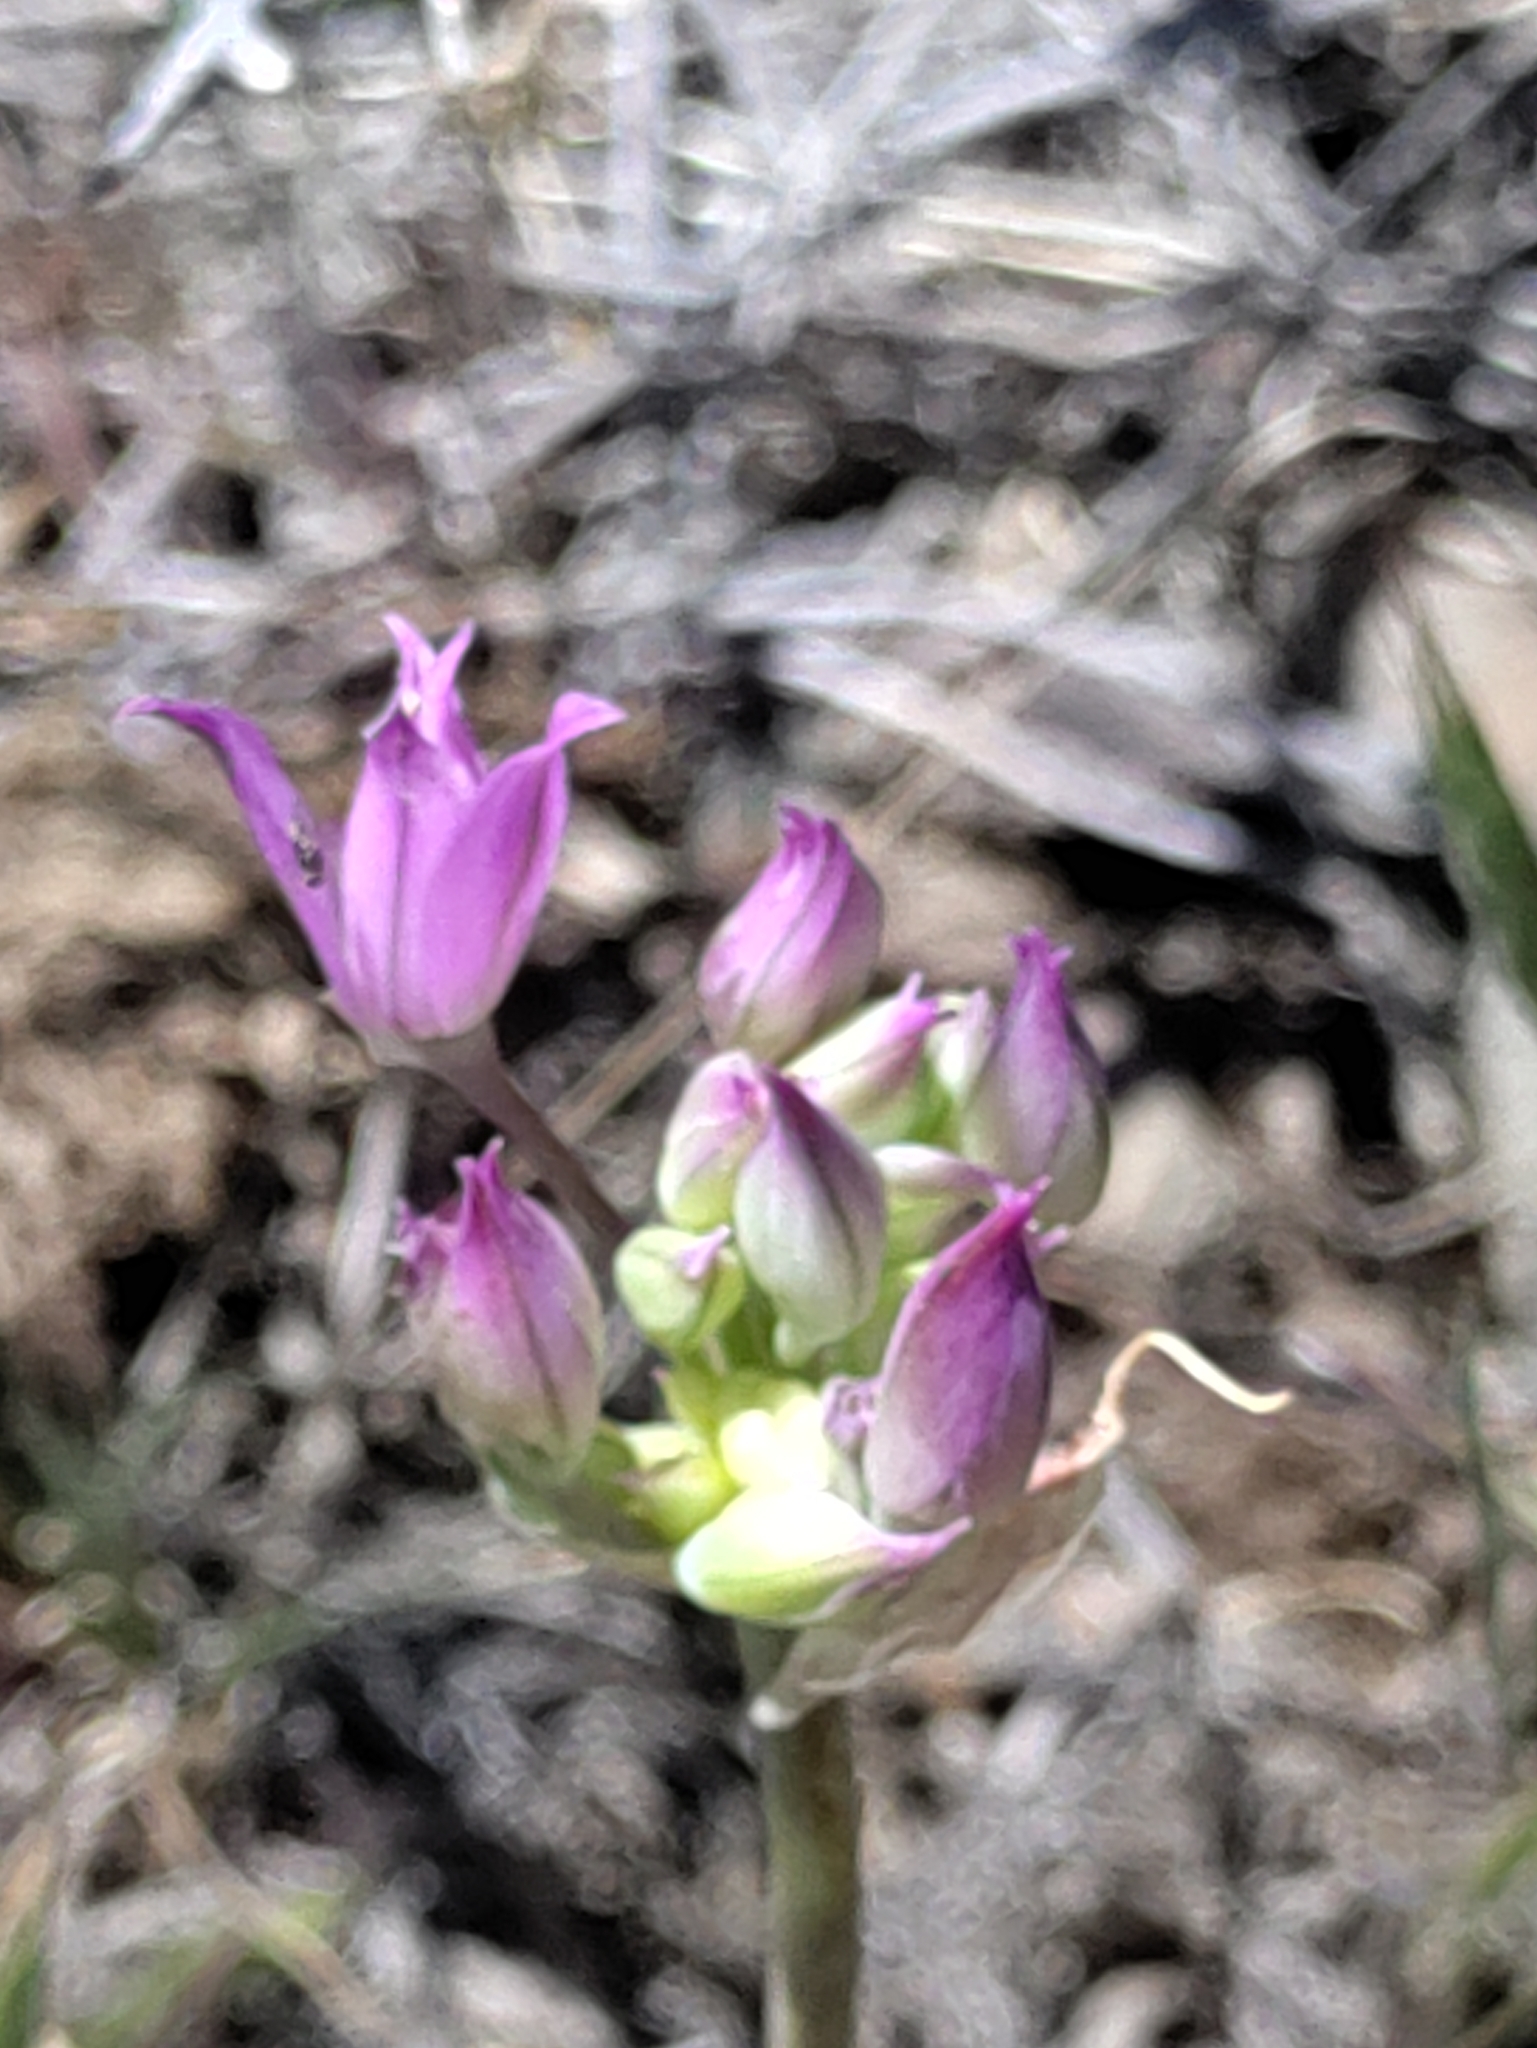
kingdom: Plantae
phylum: Tracheophyta
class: Liliopsida
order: Asparagales
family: Amaryllidaceae
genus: Allium
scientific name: Allium acuminatum
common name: Hooker's onion
